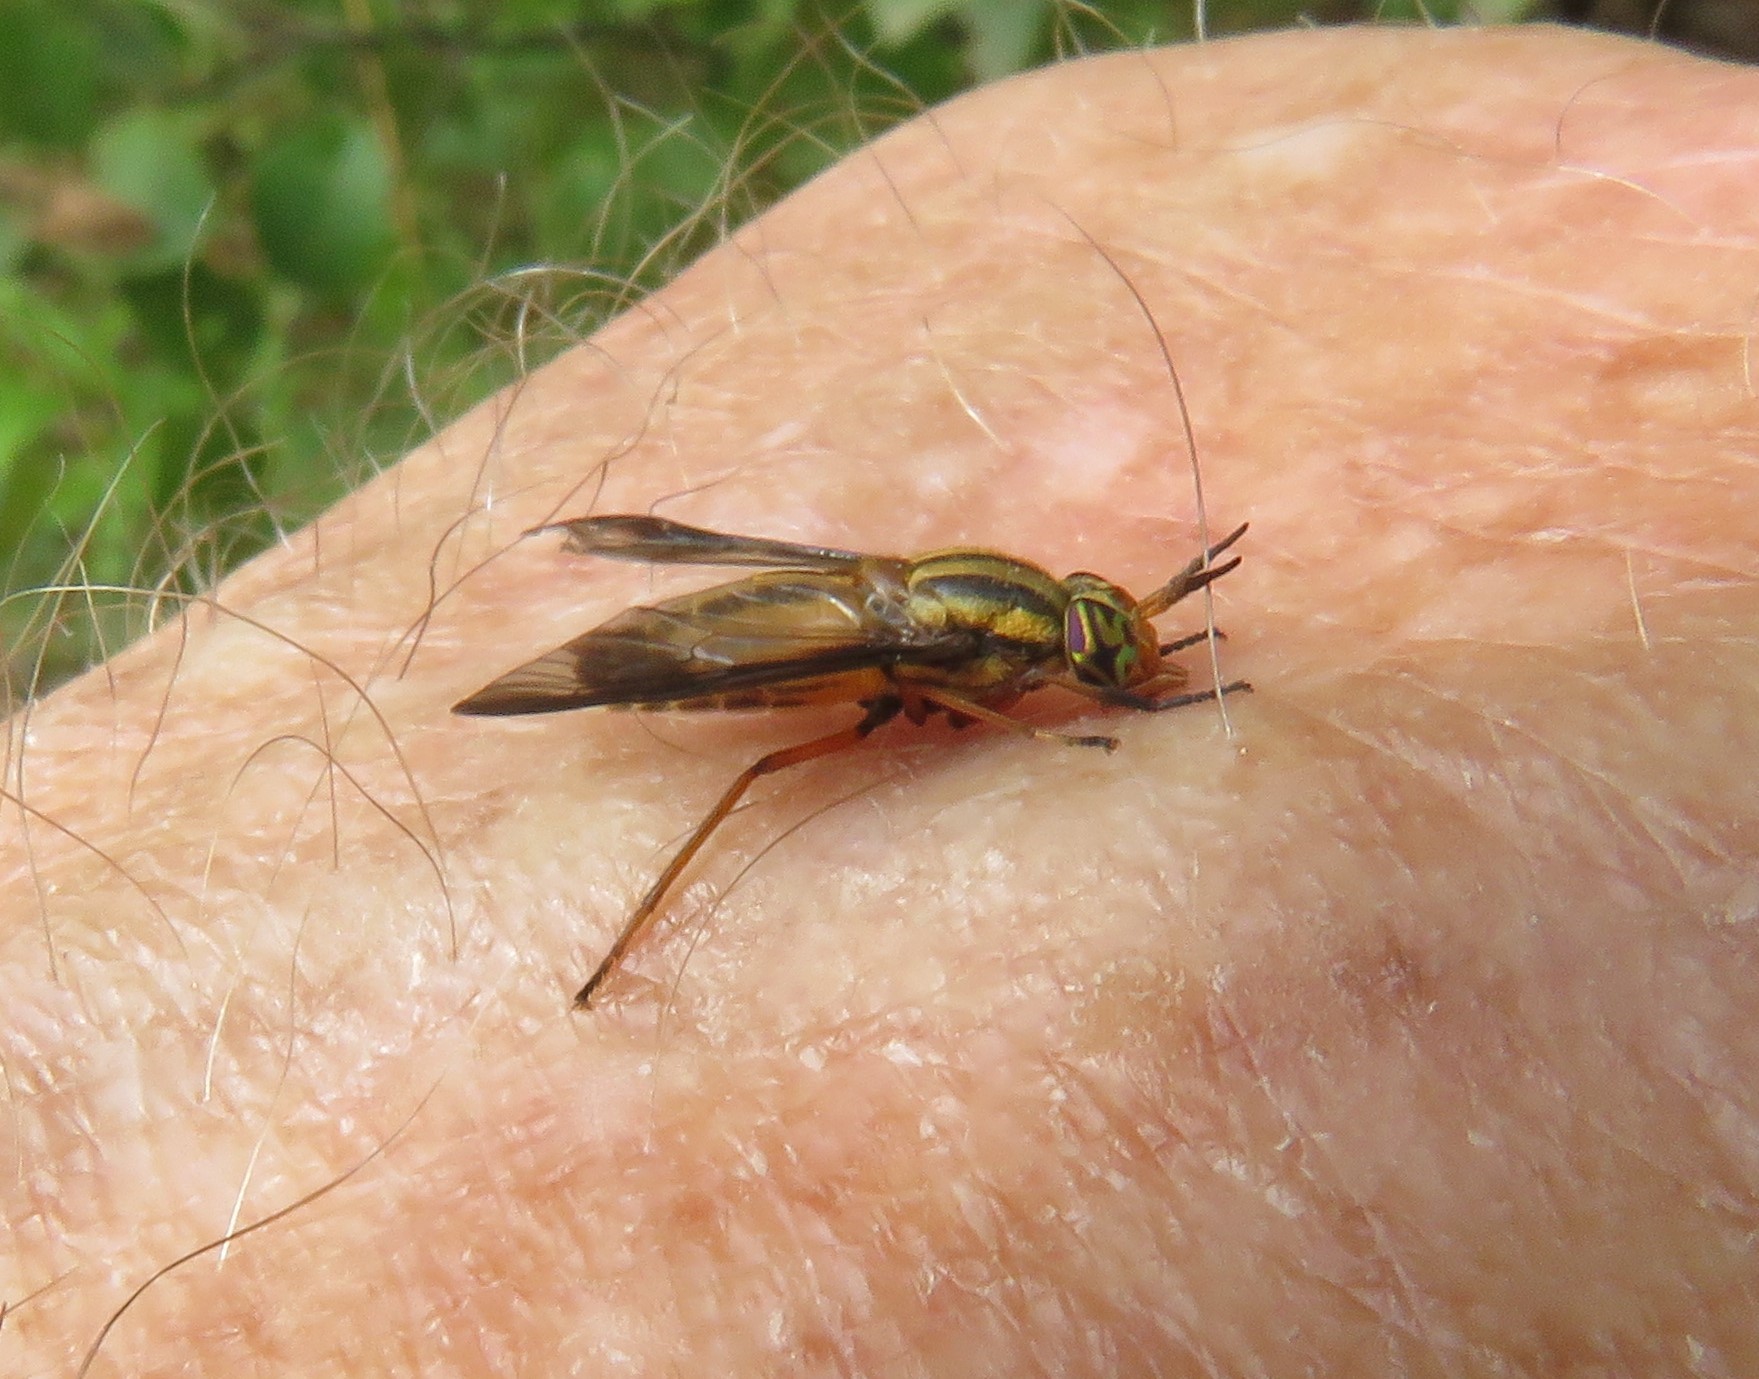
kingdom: Animalia
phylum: Arthropoda
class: Insecta
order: Diptera
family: Tabanidae
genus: Chrysops
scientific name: Chrysops vittatus
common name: Striped deer fly
